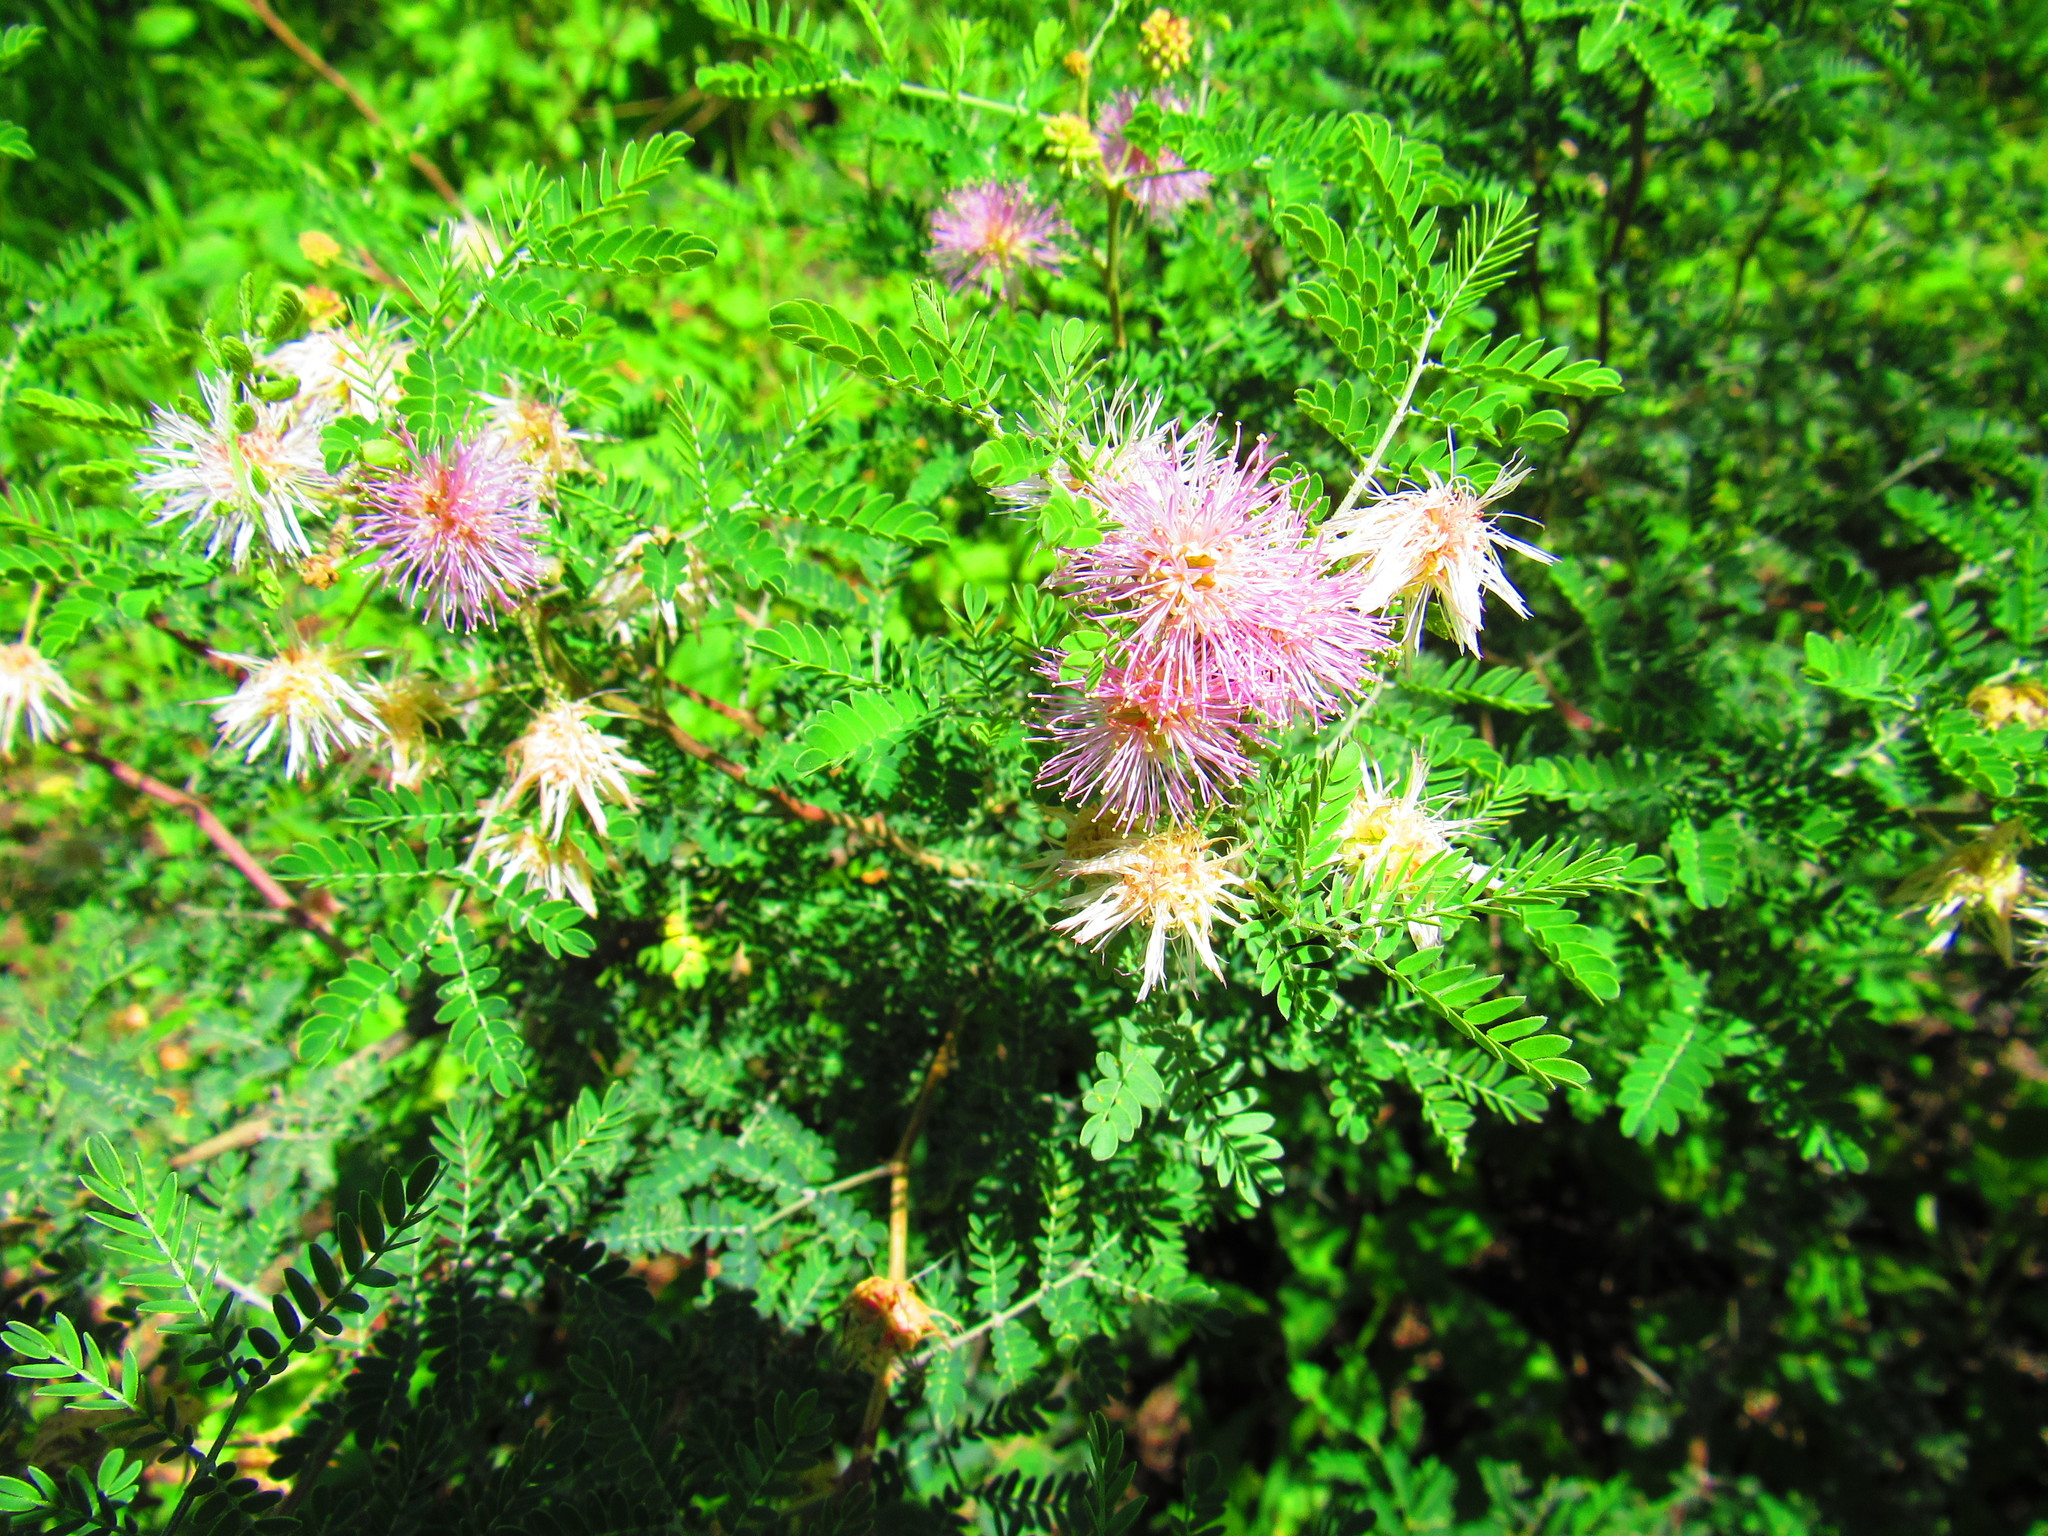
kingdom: Plantae
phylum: Tracheophyta
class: Magnoliopsida
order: Fabales
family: Fabaceae
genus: Senegalia
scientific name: Senegalia occidentalis
